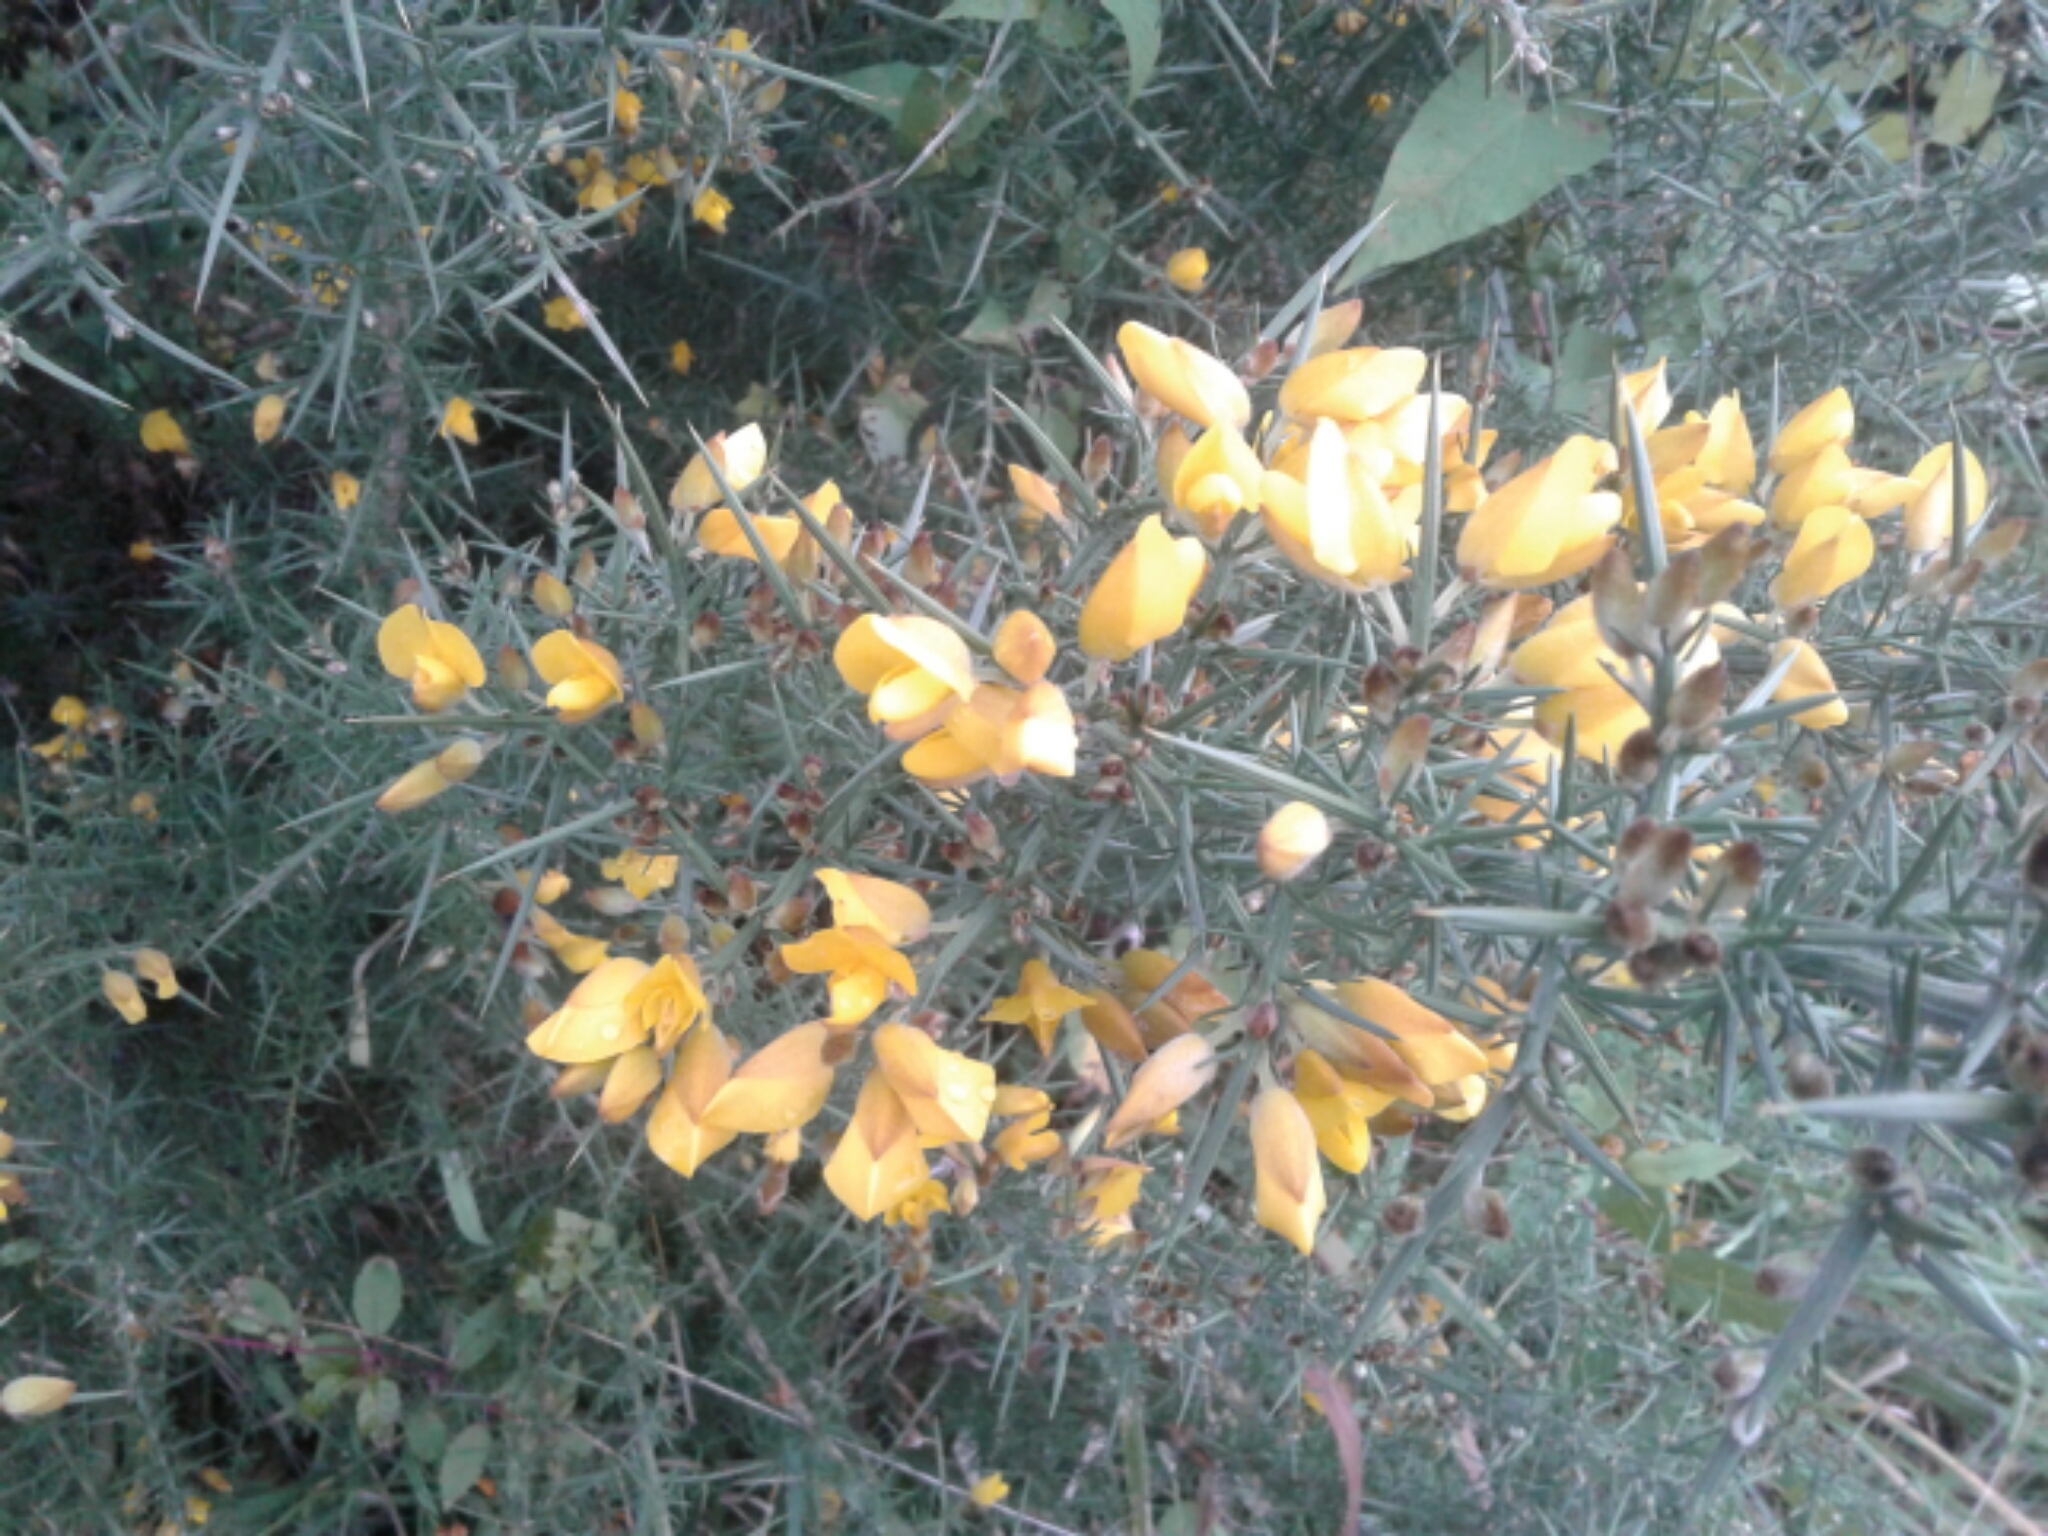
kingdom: Plantae
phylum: Tracheophyta
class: Magnoliopsida
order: Fabales
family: Fabaceae
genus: Ulex
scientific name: Ulex europaeus
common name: Common gorse
